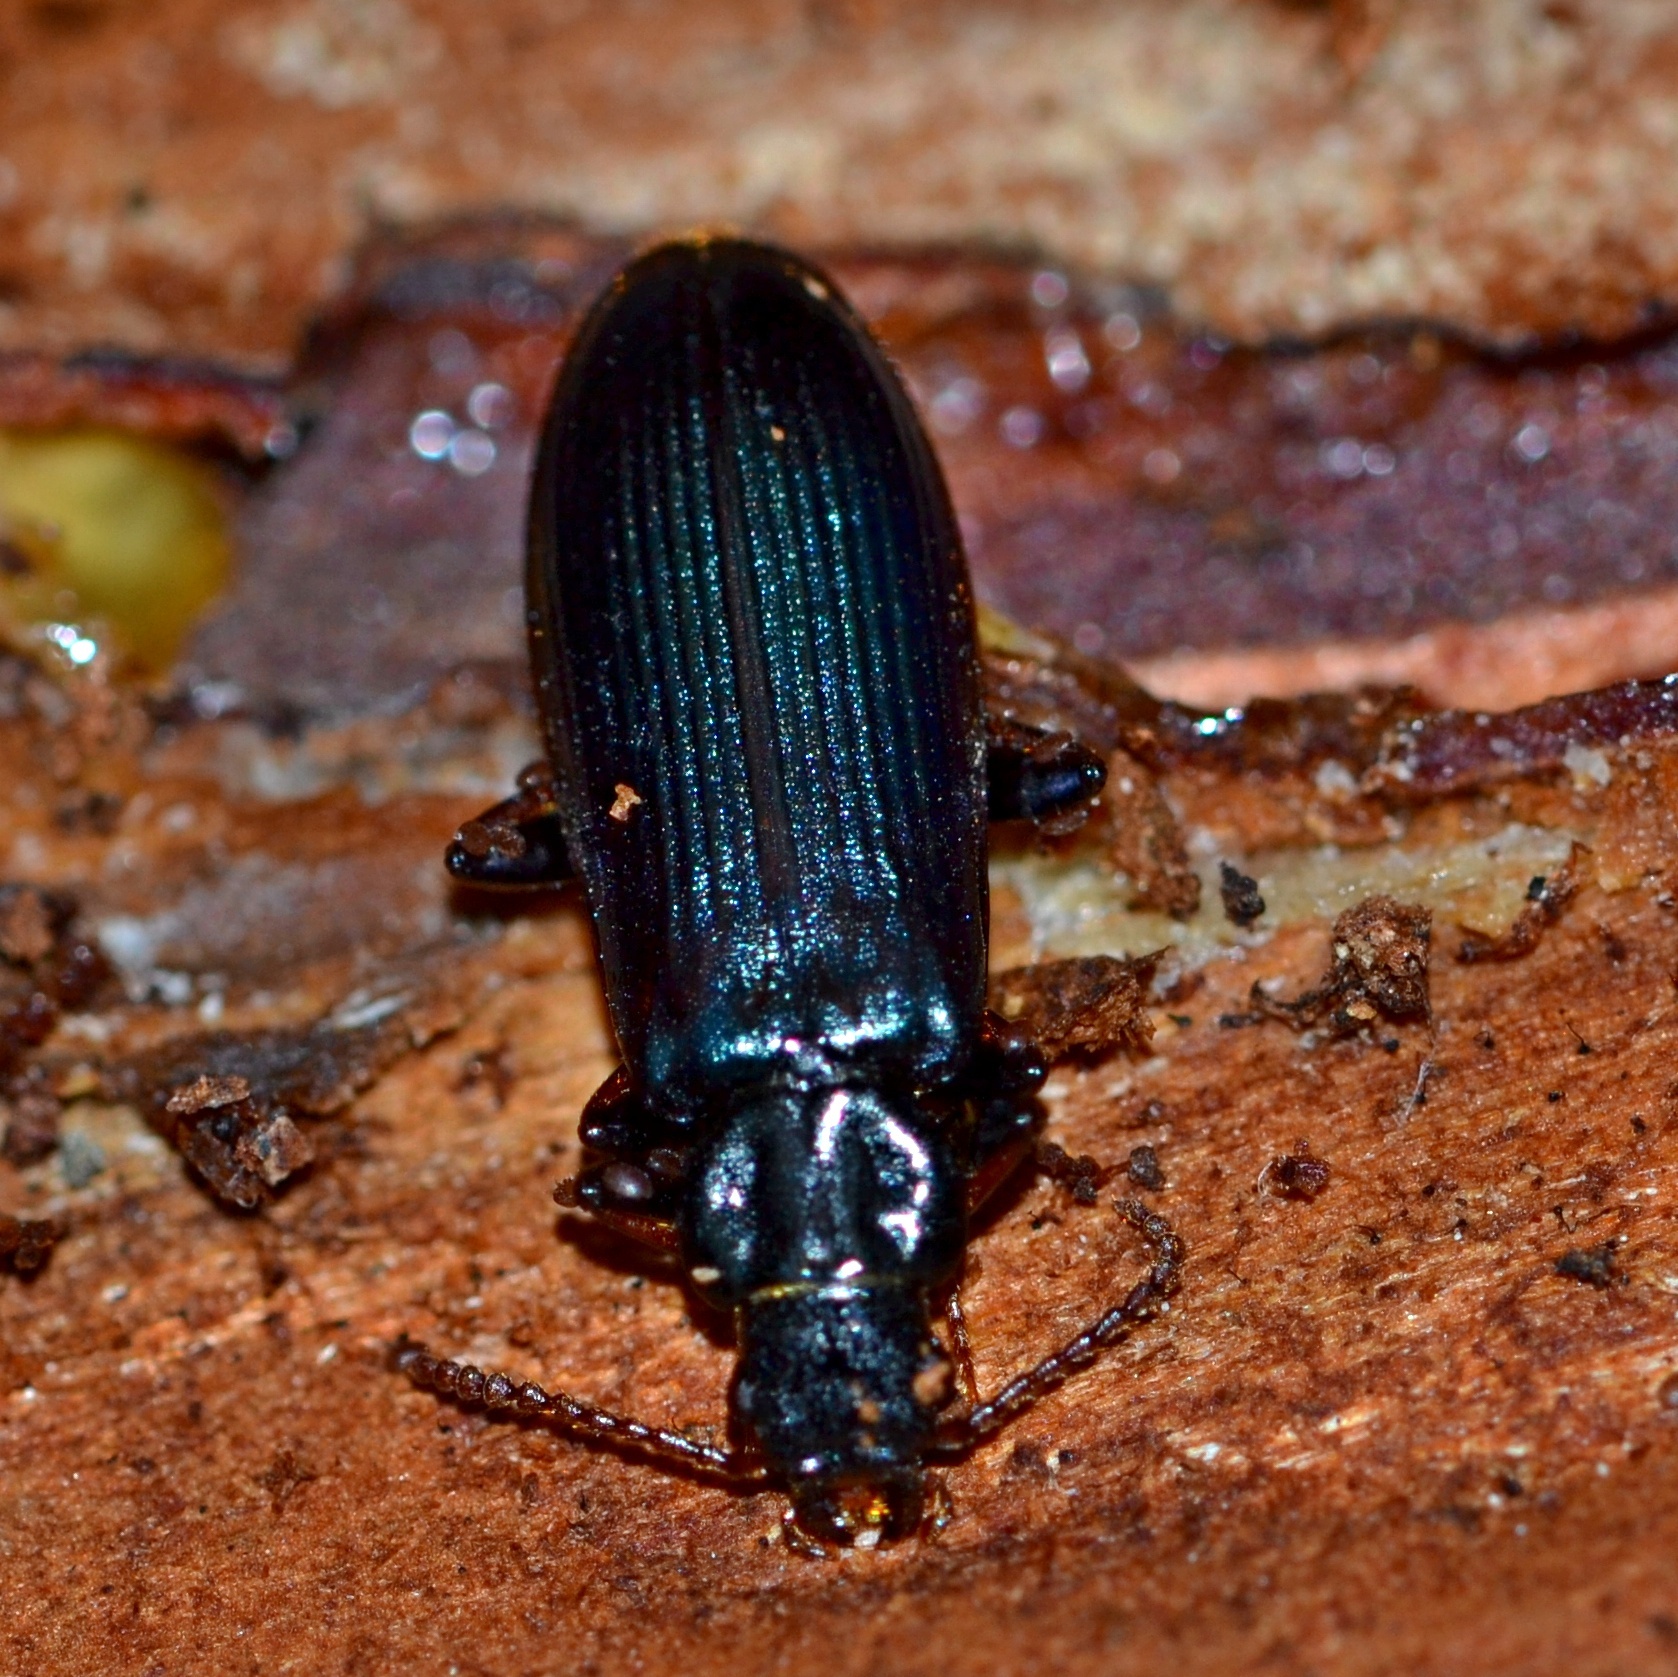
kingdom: Animalia
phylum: Arthropoda
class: Insecta
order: Coleoptera
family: Pythidae
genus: Pytho
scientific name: Pytho depressus
